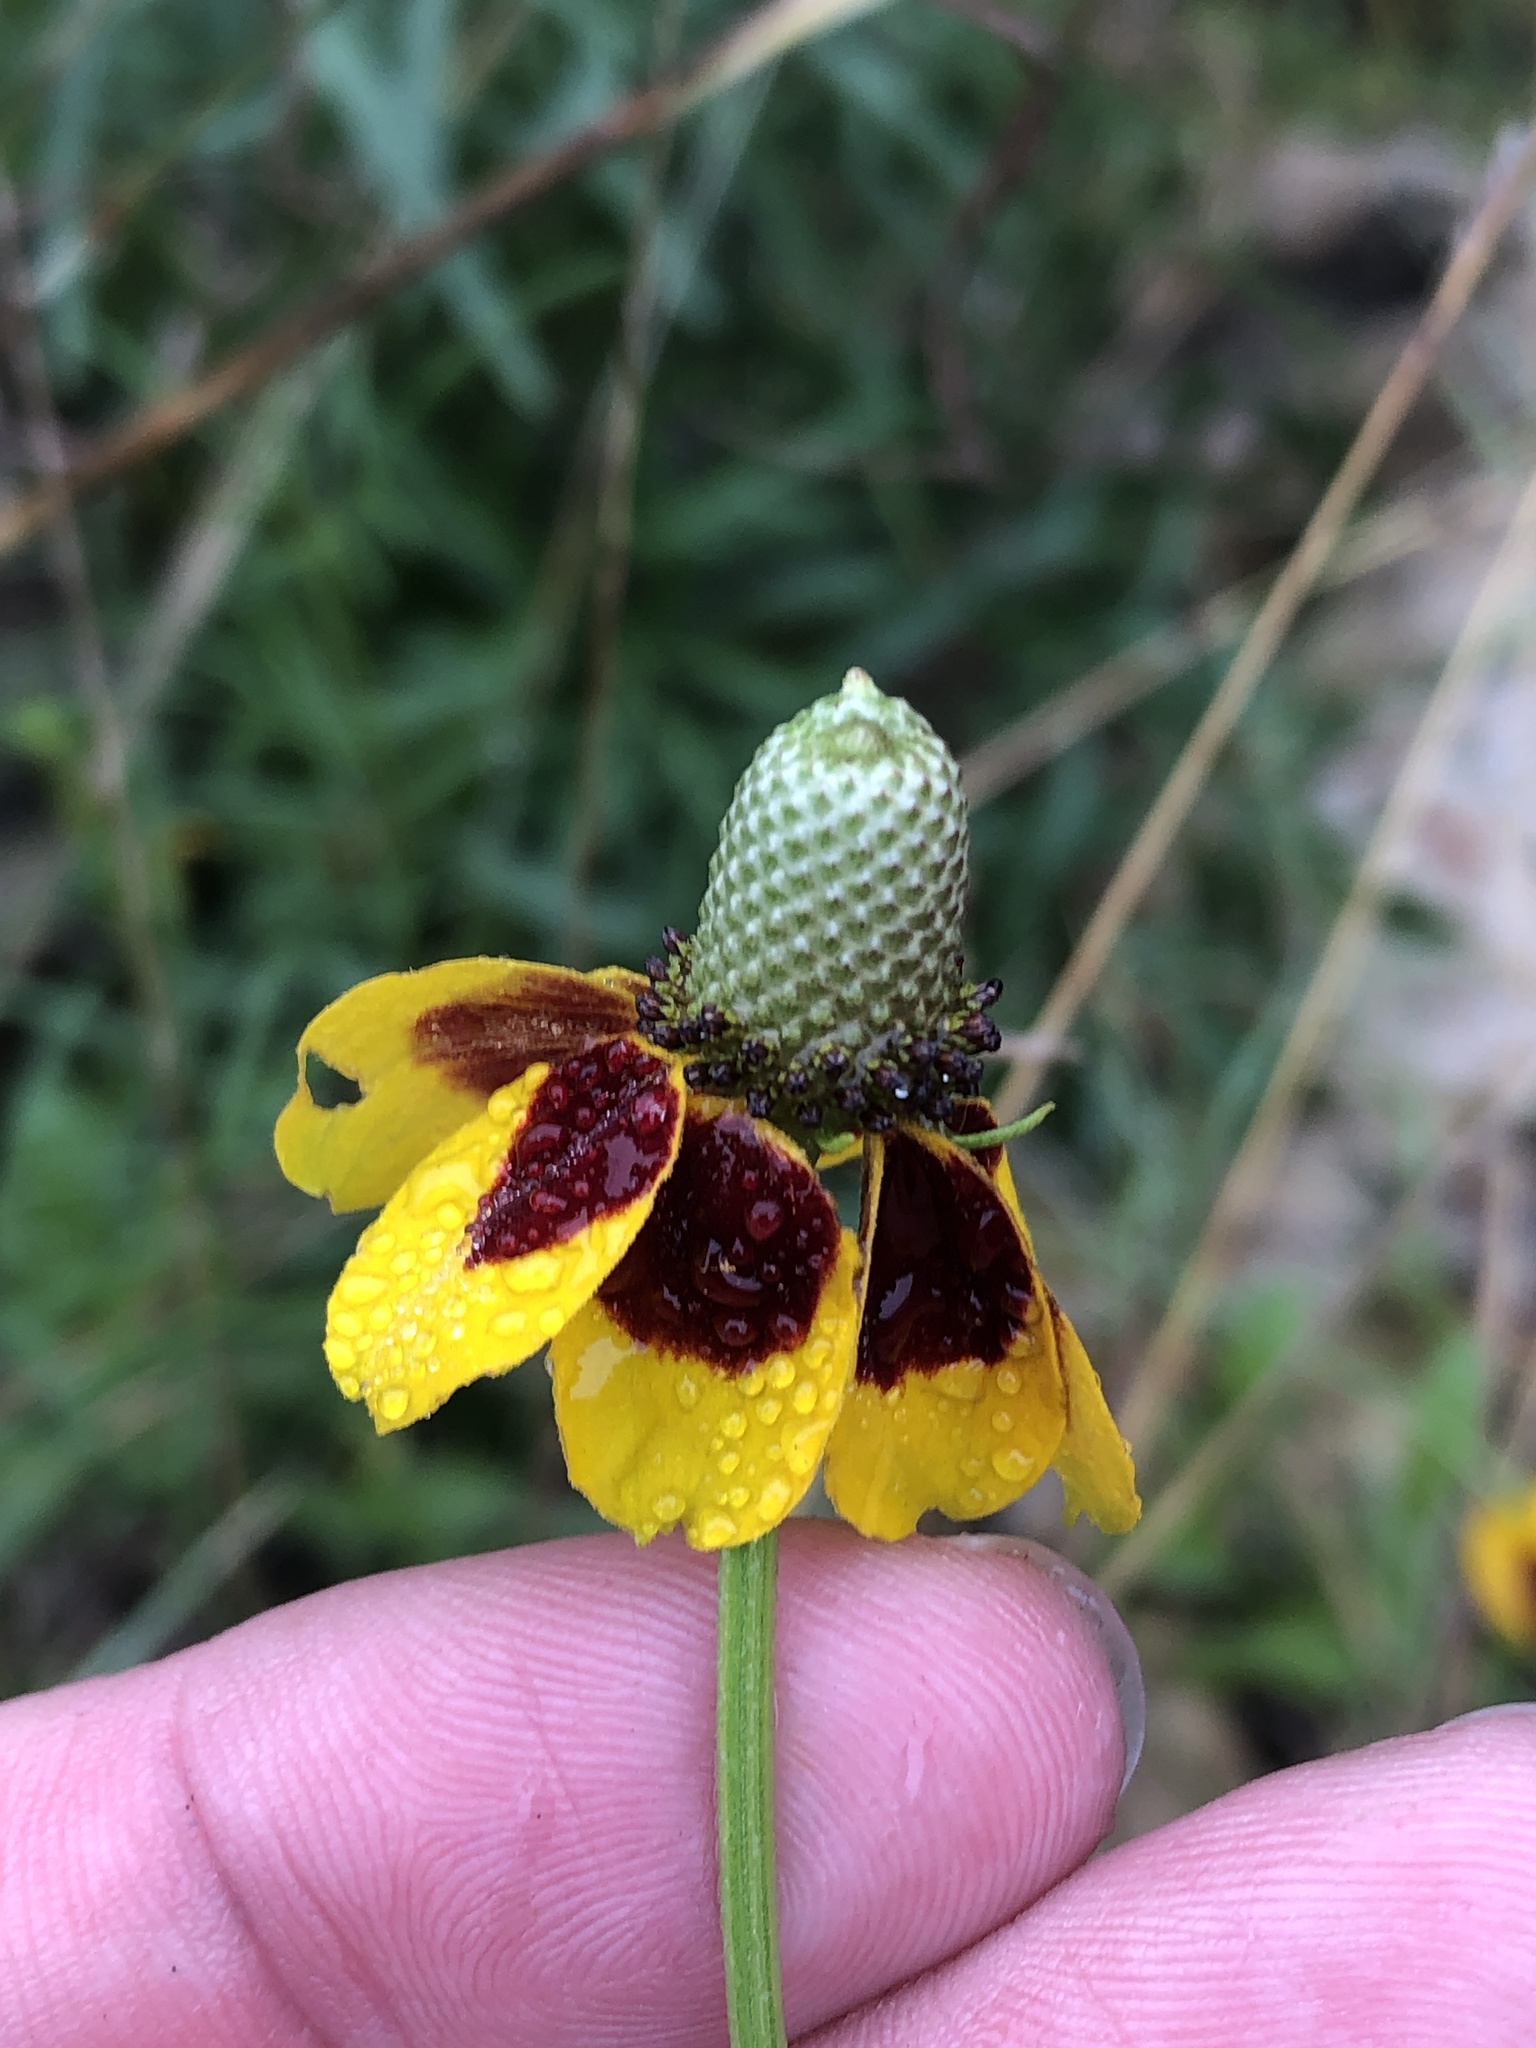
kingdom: Plantae
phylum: Tracheophyta
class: Magnoliopsida
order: Asterales
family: Asteraceae
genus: Ratibida
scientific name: Ratibida columnifera
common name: Prairie coneflower
